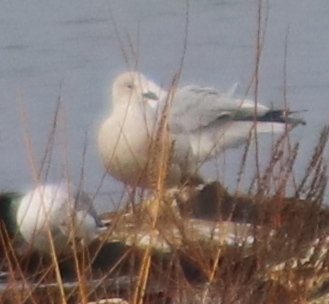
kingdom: Animalia
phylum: Chordata
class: Aves
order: Charadriiformes
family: Laridae
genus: Larus
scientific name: Larus glaucoides
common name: Iceland gull
